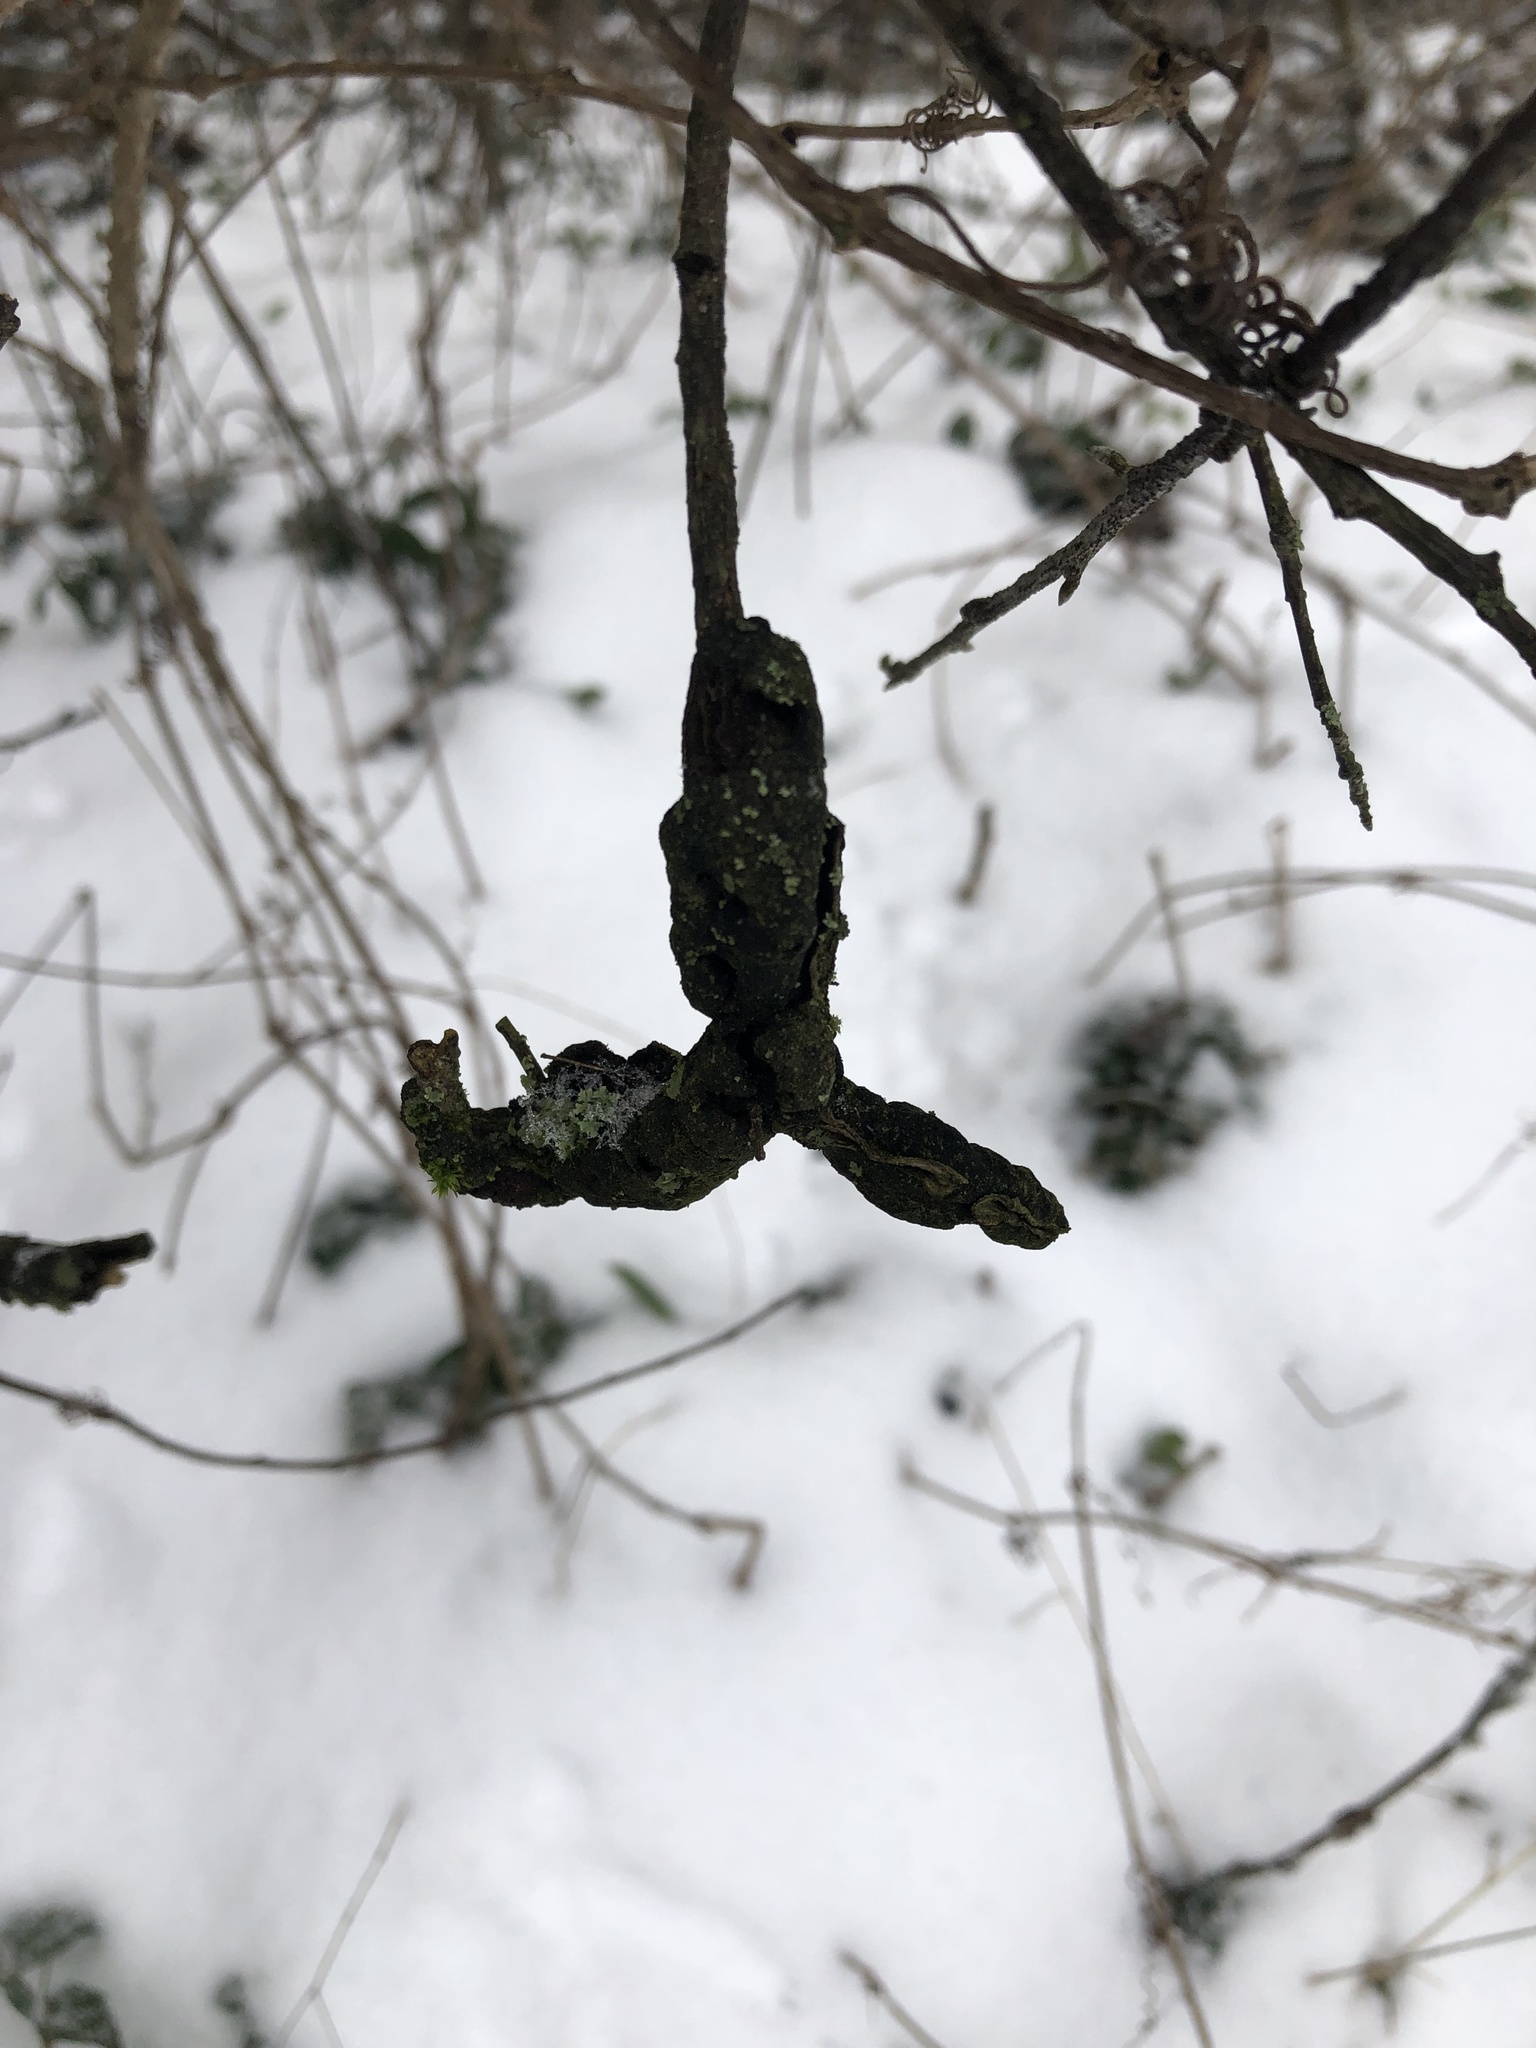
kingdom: Fungi
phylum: Ascomycota
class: Dothideomycetes
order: Venturiales
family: Venturiaceae
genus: Apiosporina
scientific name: Apiosporina morbosa
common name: Black knot
